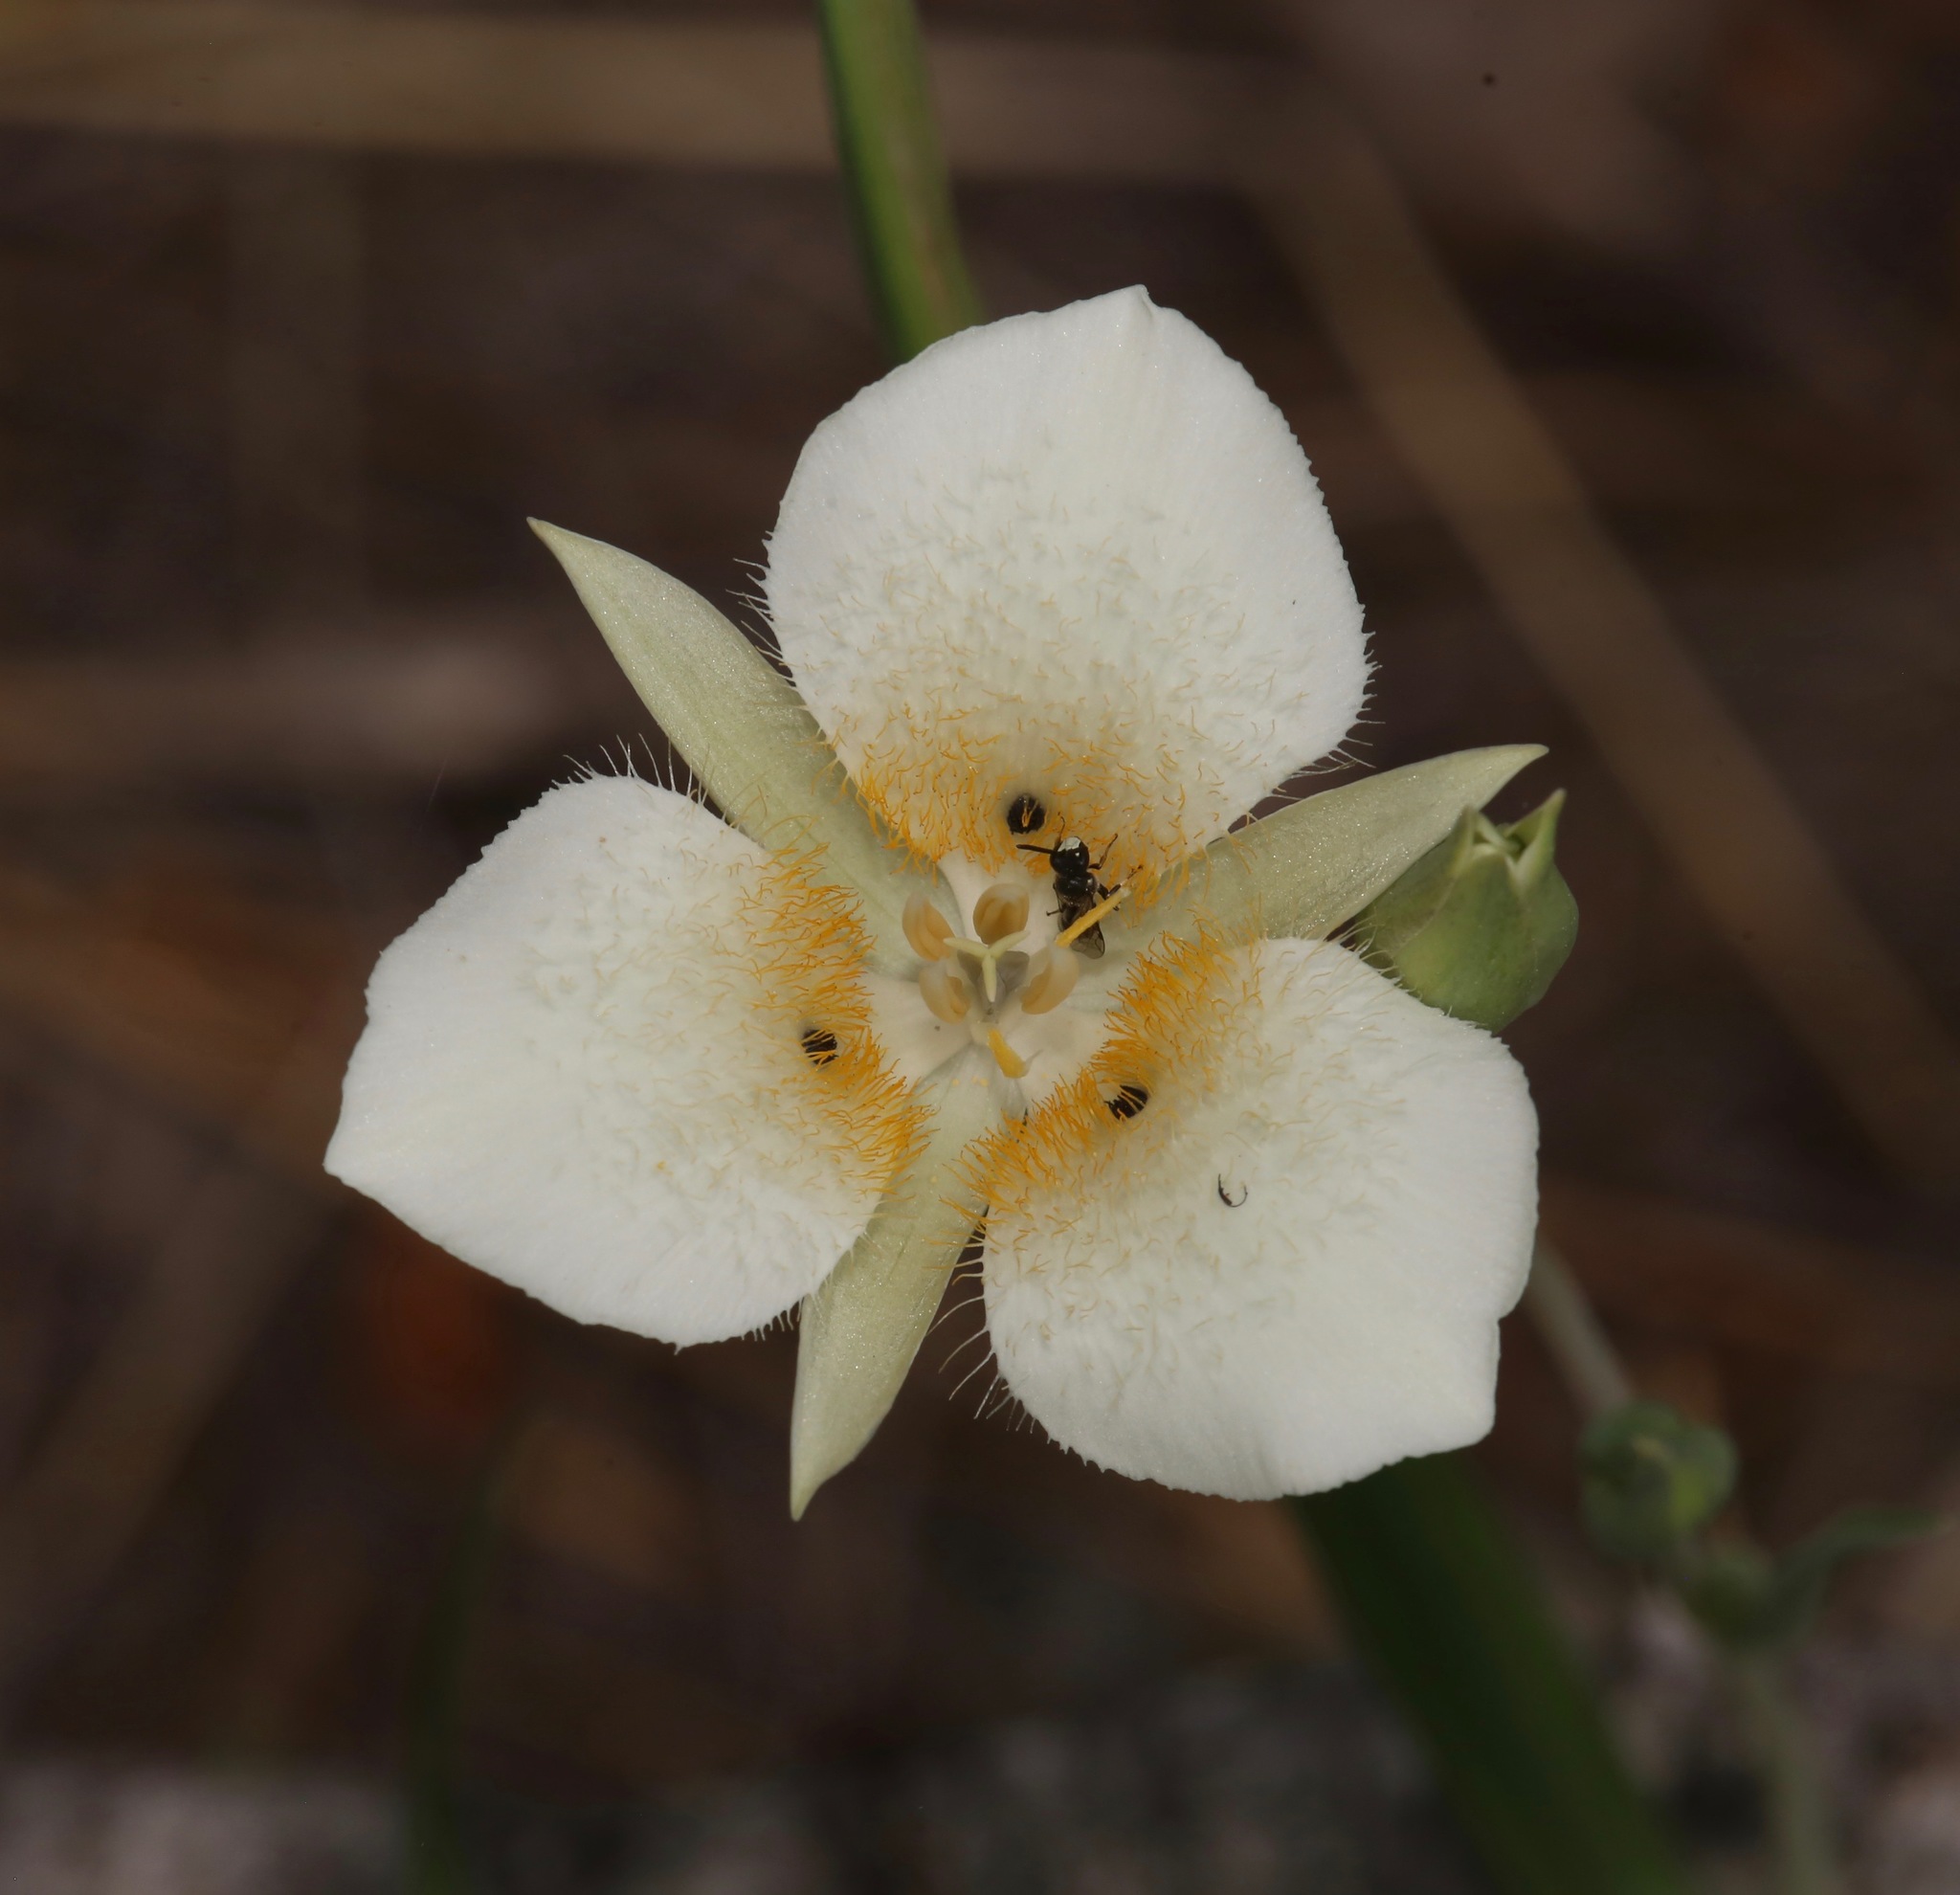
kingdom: Plantae
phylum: Tracheophyta
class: Liliopsida
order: Liliales
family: Liliaceae
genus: Calochortus
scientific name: Calochortus apiculatus
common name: Baker's mariposa lily
